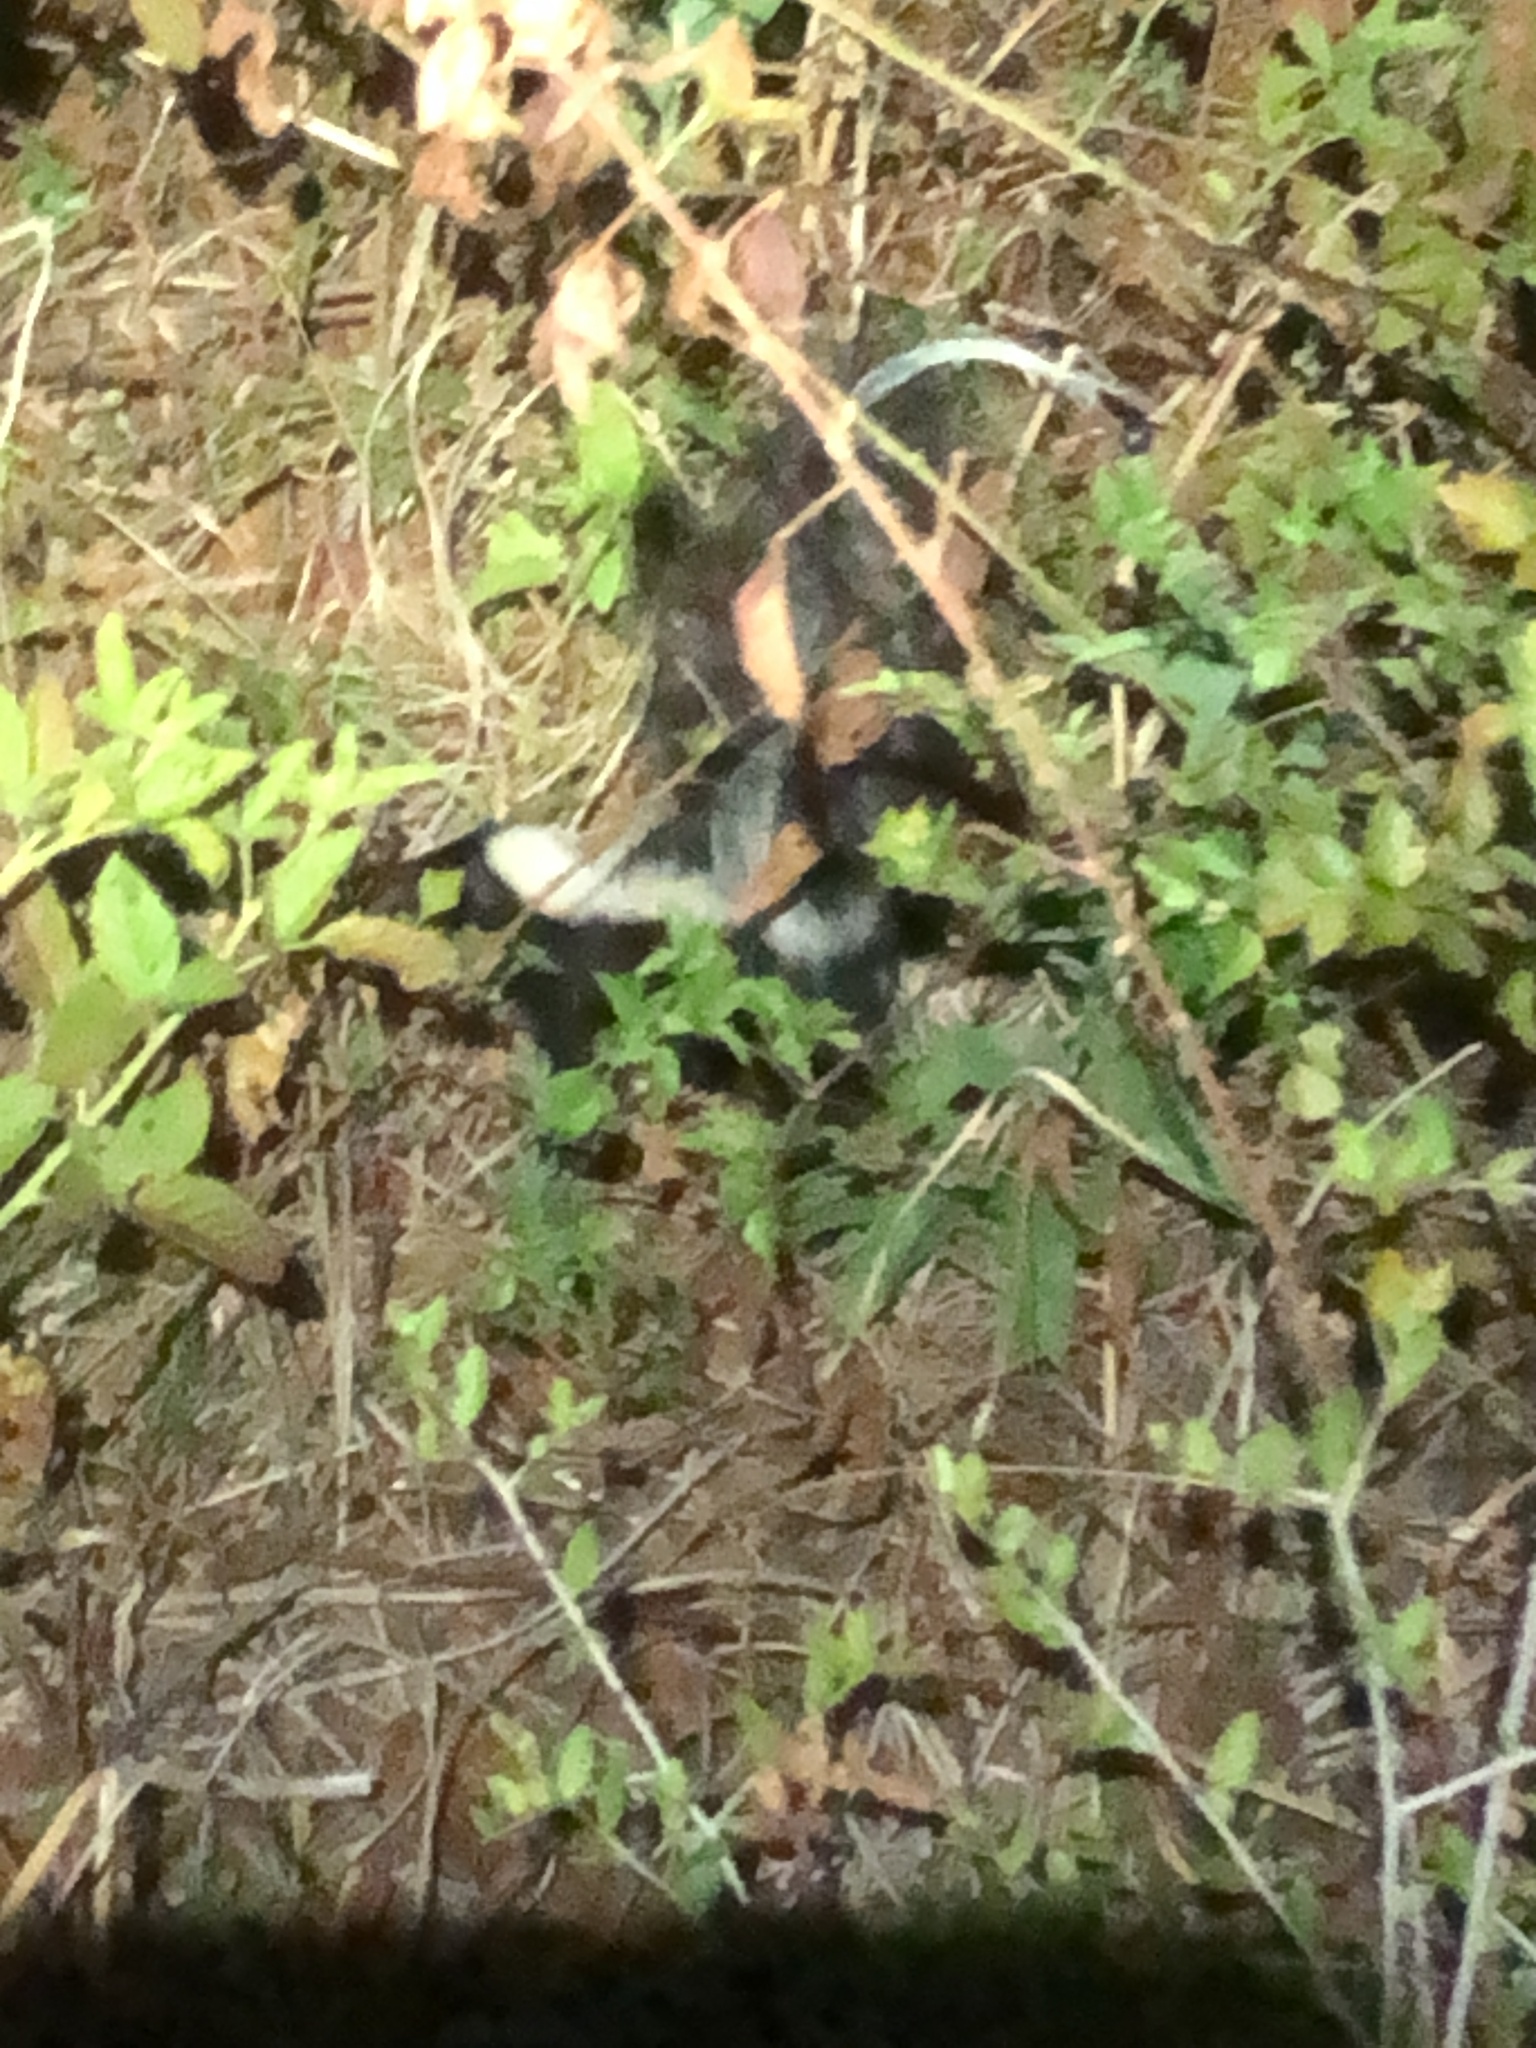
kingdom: Animalia
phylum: Chordata
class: Mammalia
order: Carnivora
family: Mephitidae
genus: Mephitis
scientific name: Mephitis mephitis
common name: Striped skunk
